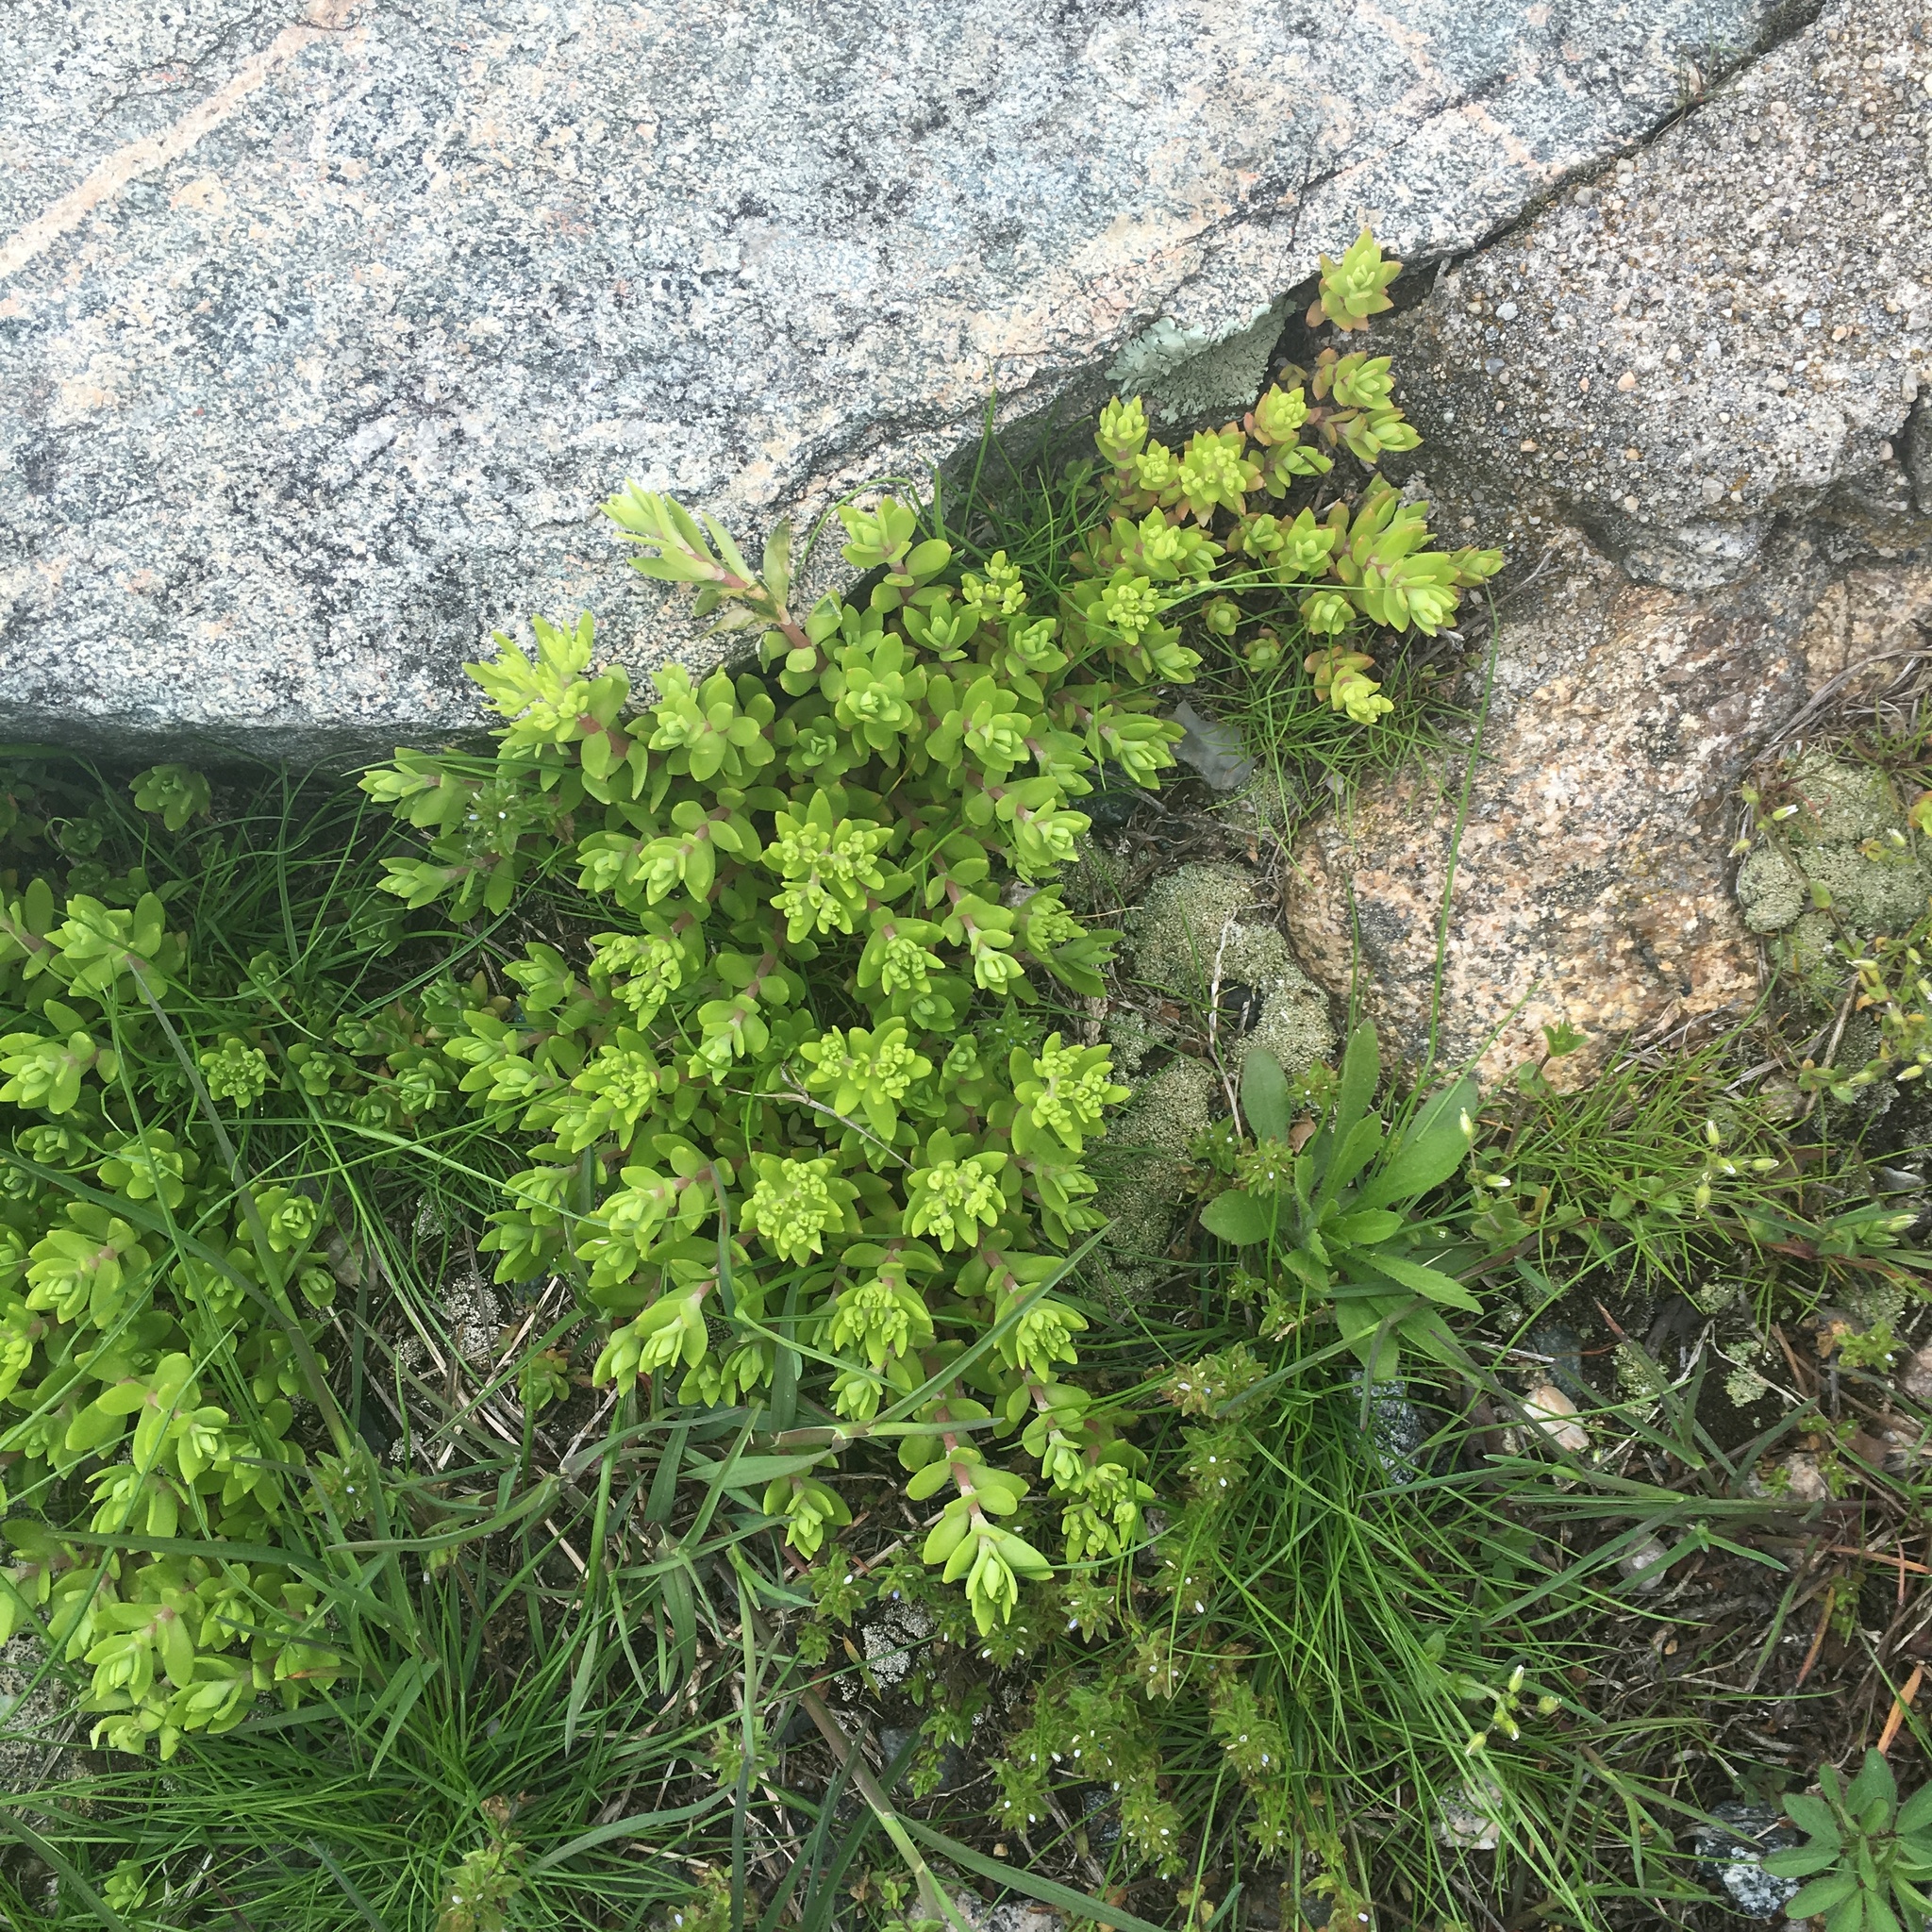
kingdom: Plantae
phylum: Tracheophyta
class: Magnoliopsida
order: Saxifragales
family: Crassulaceae
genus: Sedum
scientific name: Sedum sarmentosum
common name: Stringy stonecrop
